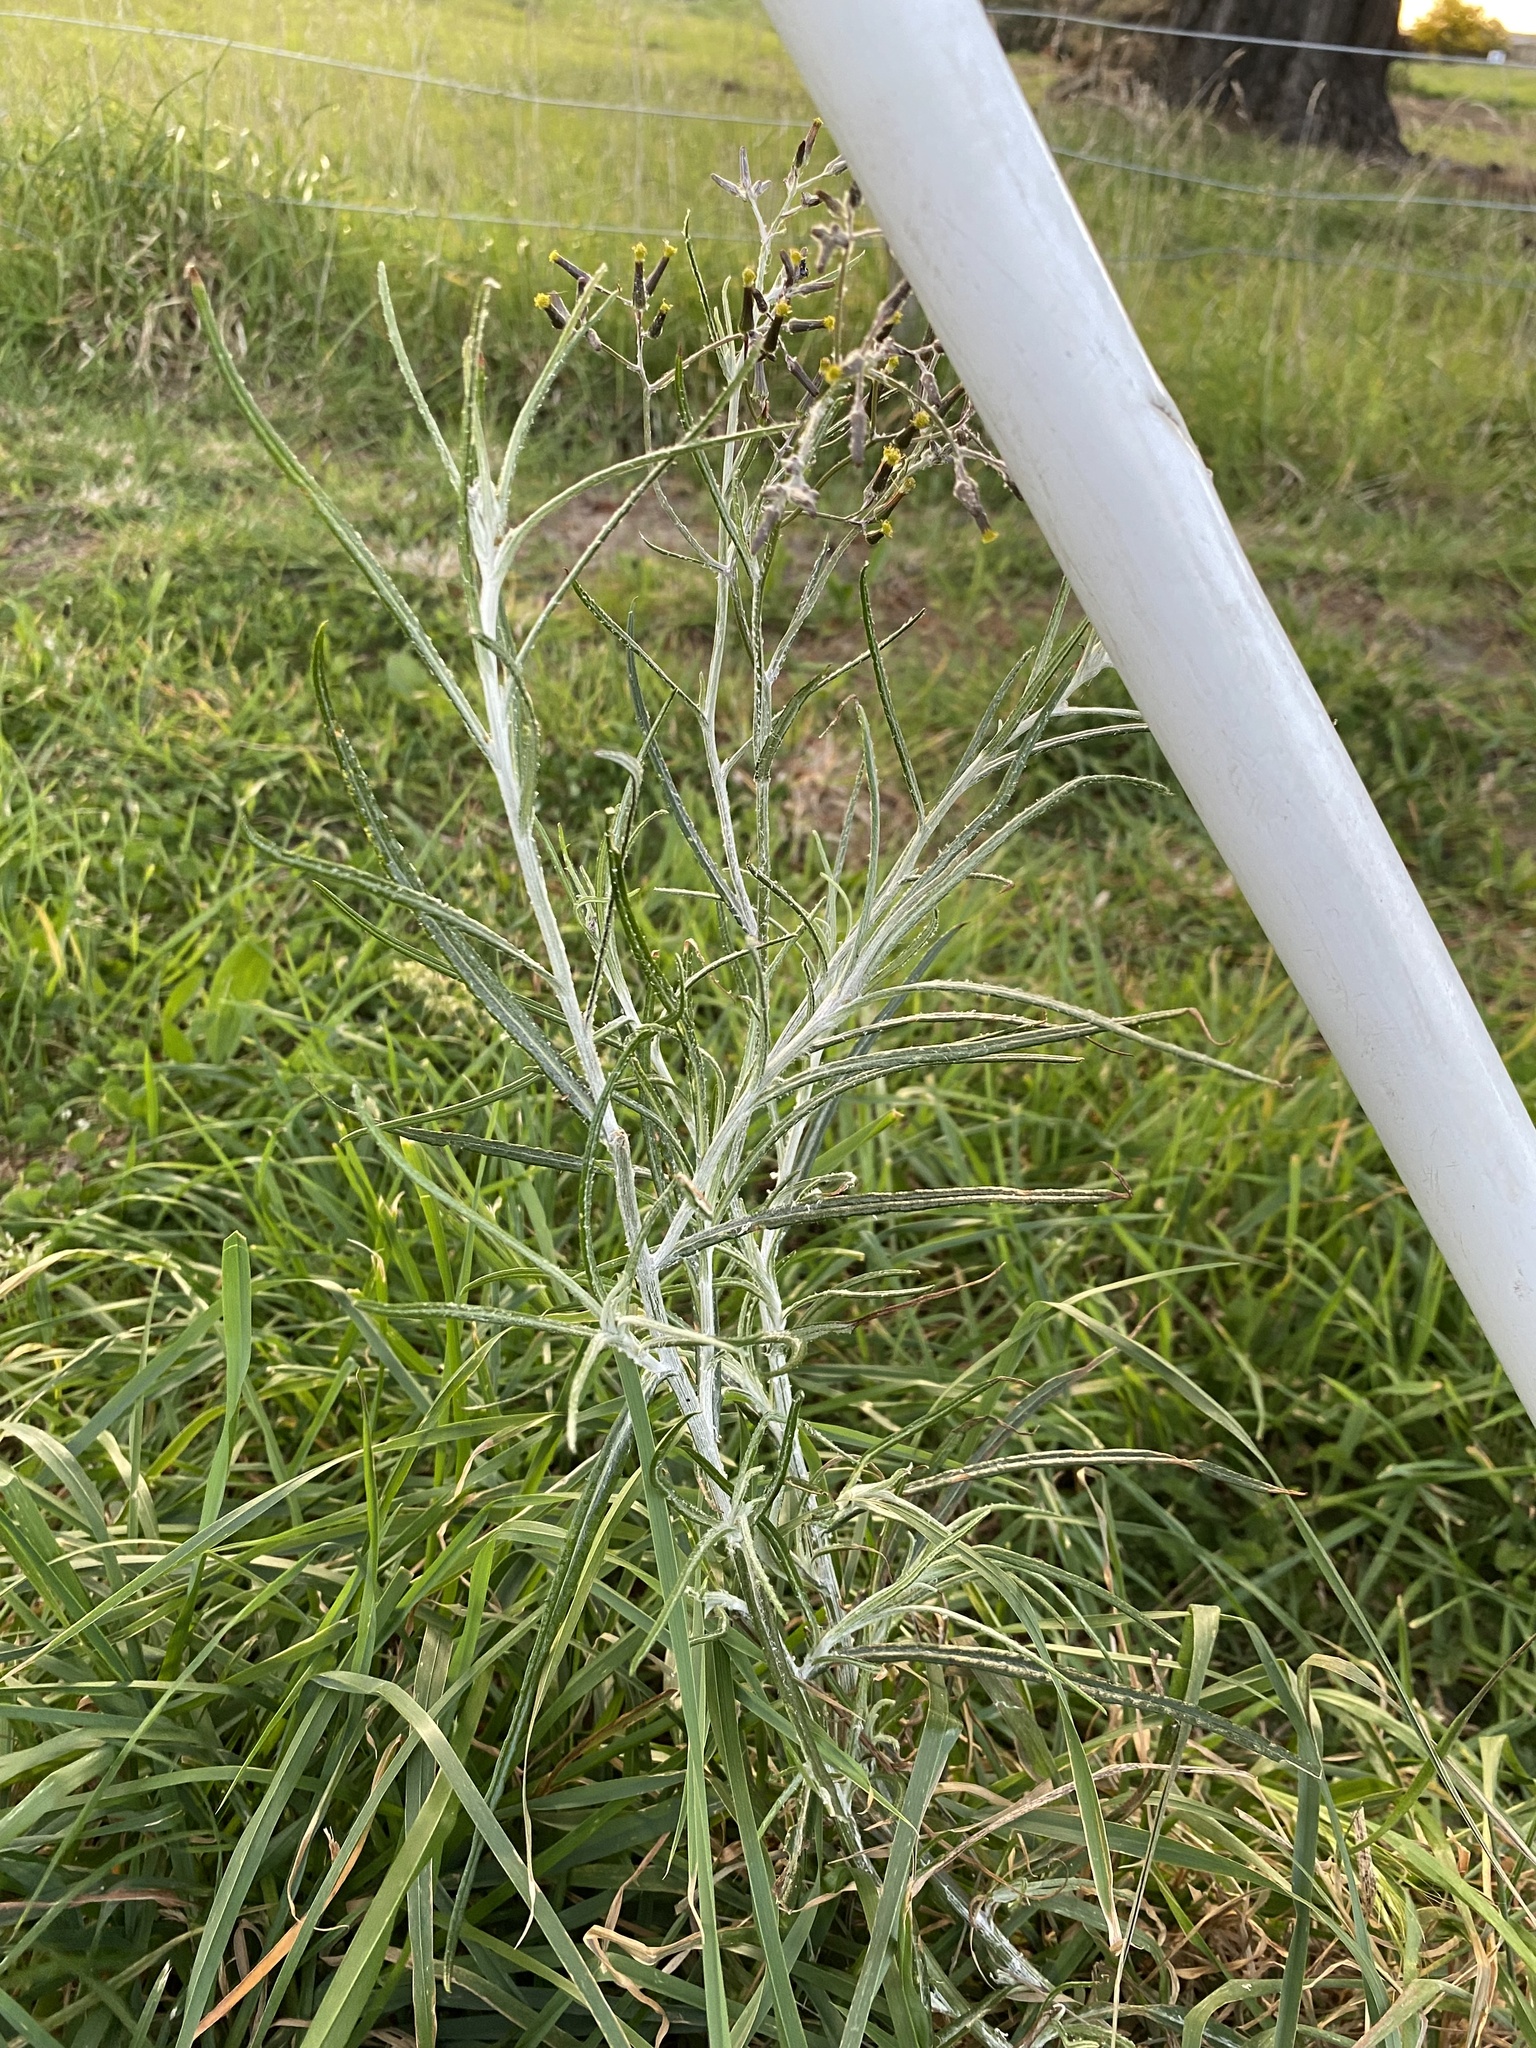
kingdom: Plantae
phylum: Tracheophyta
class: Magnoliopsida
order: Asterales
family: Asteraceae
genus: Senecio
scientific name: Senecio quadridentatus
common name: Cotton fireweed
